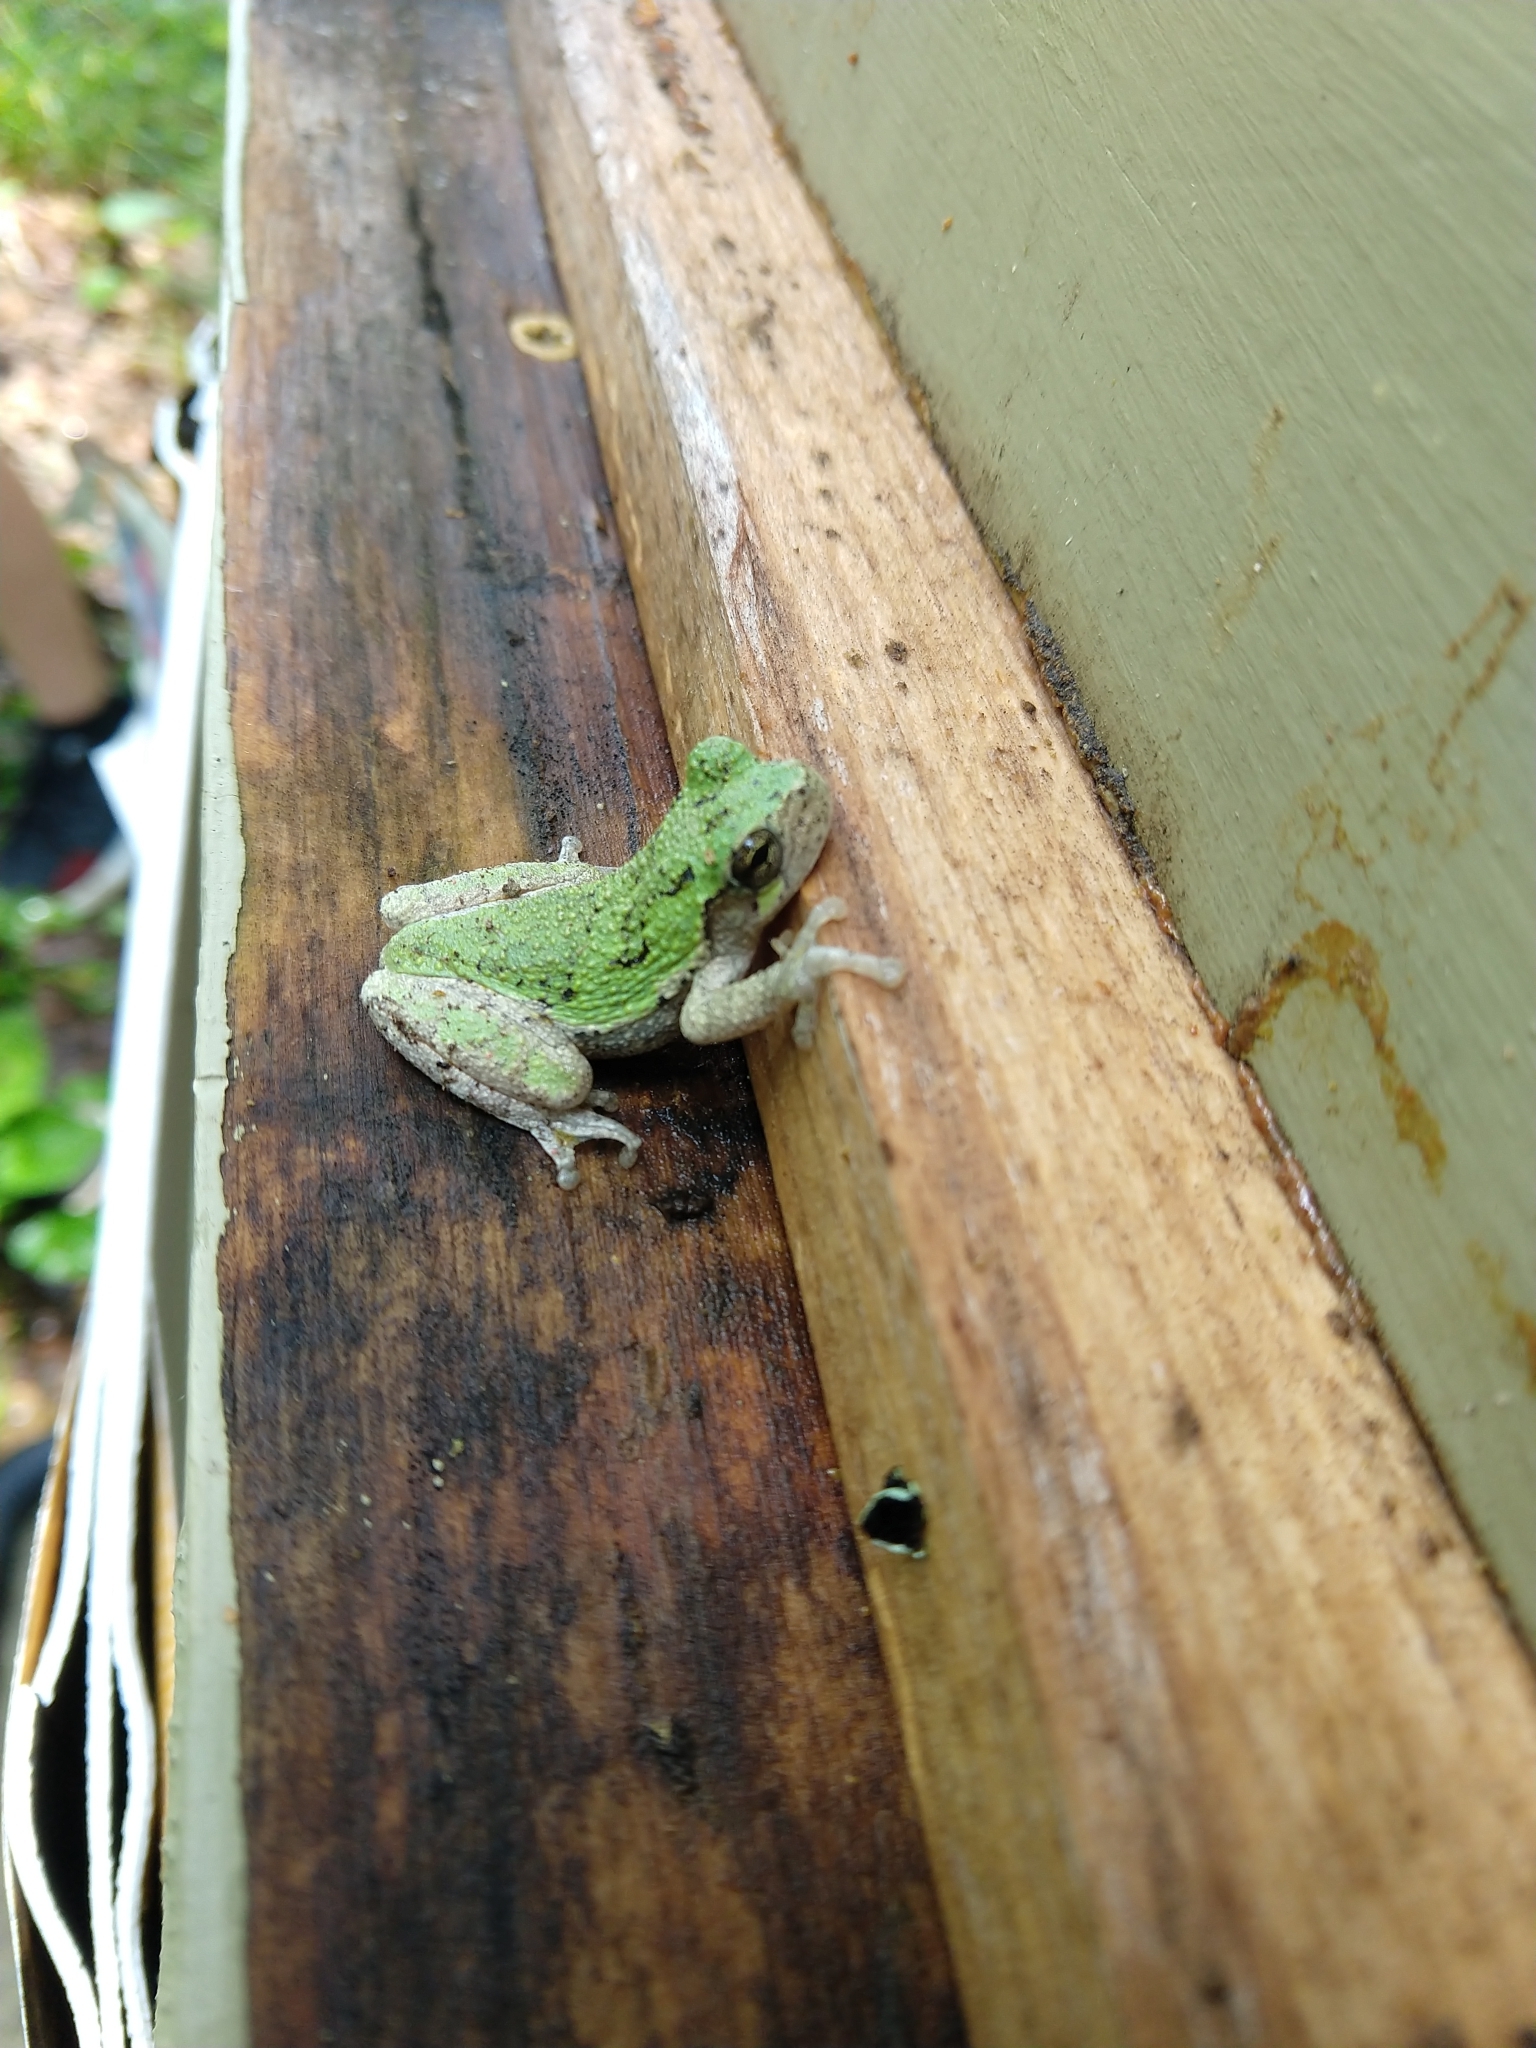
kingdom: Animalia
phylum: Chordata
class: Amphibia
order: Anura
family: Hylidae
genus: Dryophytes
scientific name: Dryophytes chrysoscelis
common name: Cope's gray treefrog
